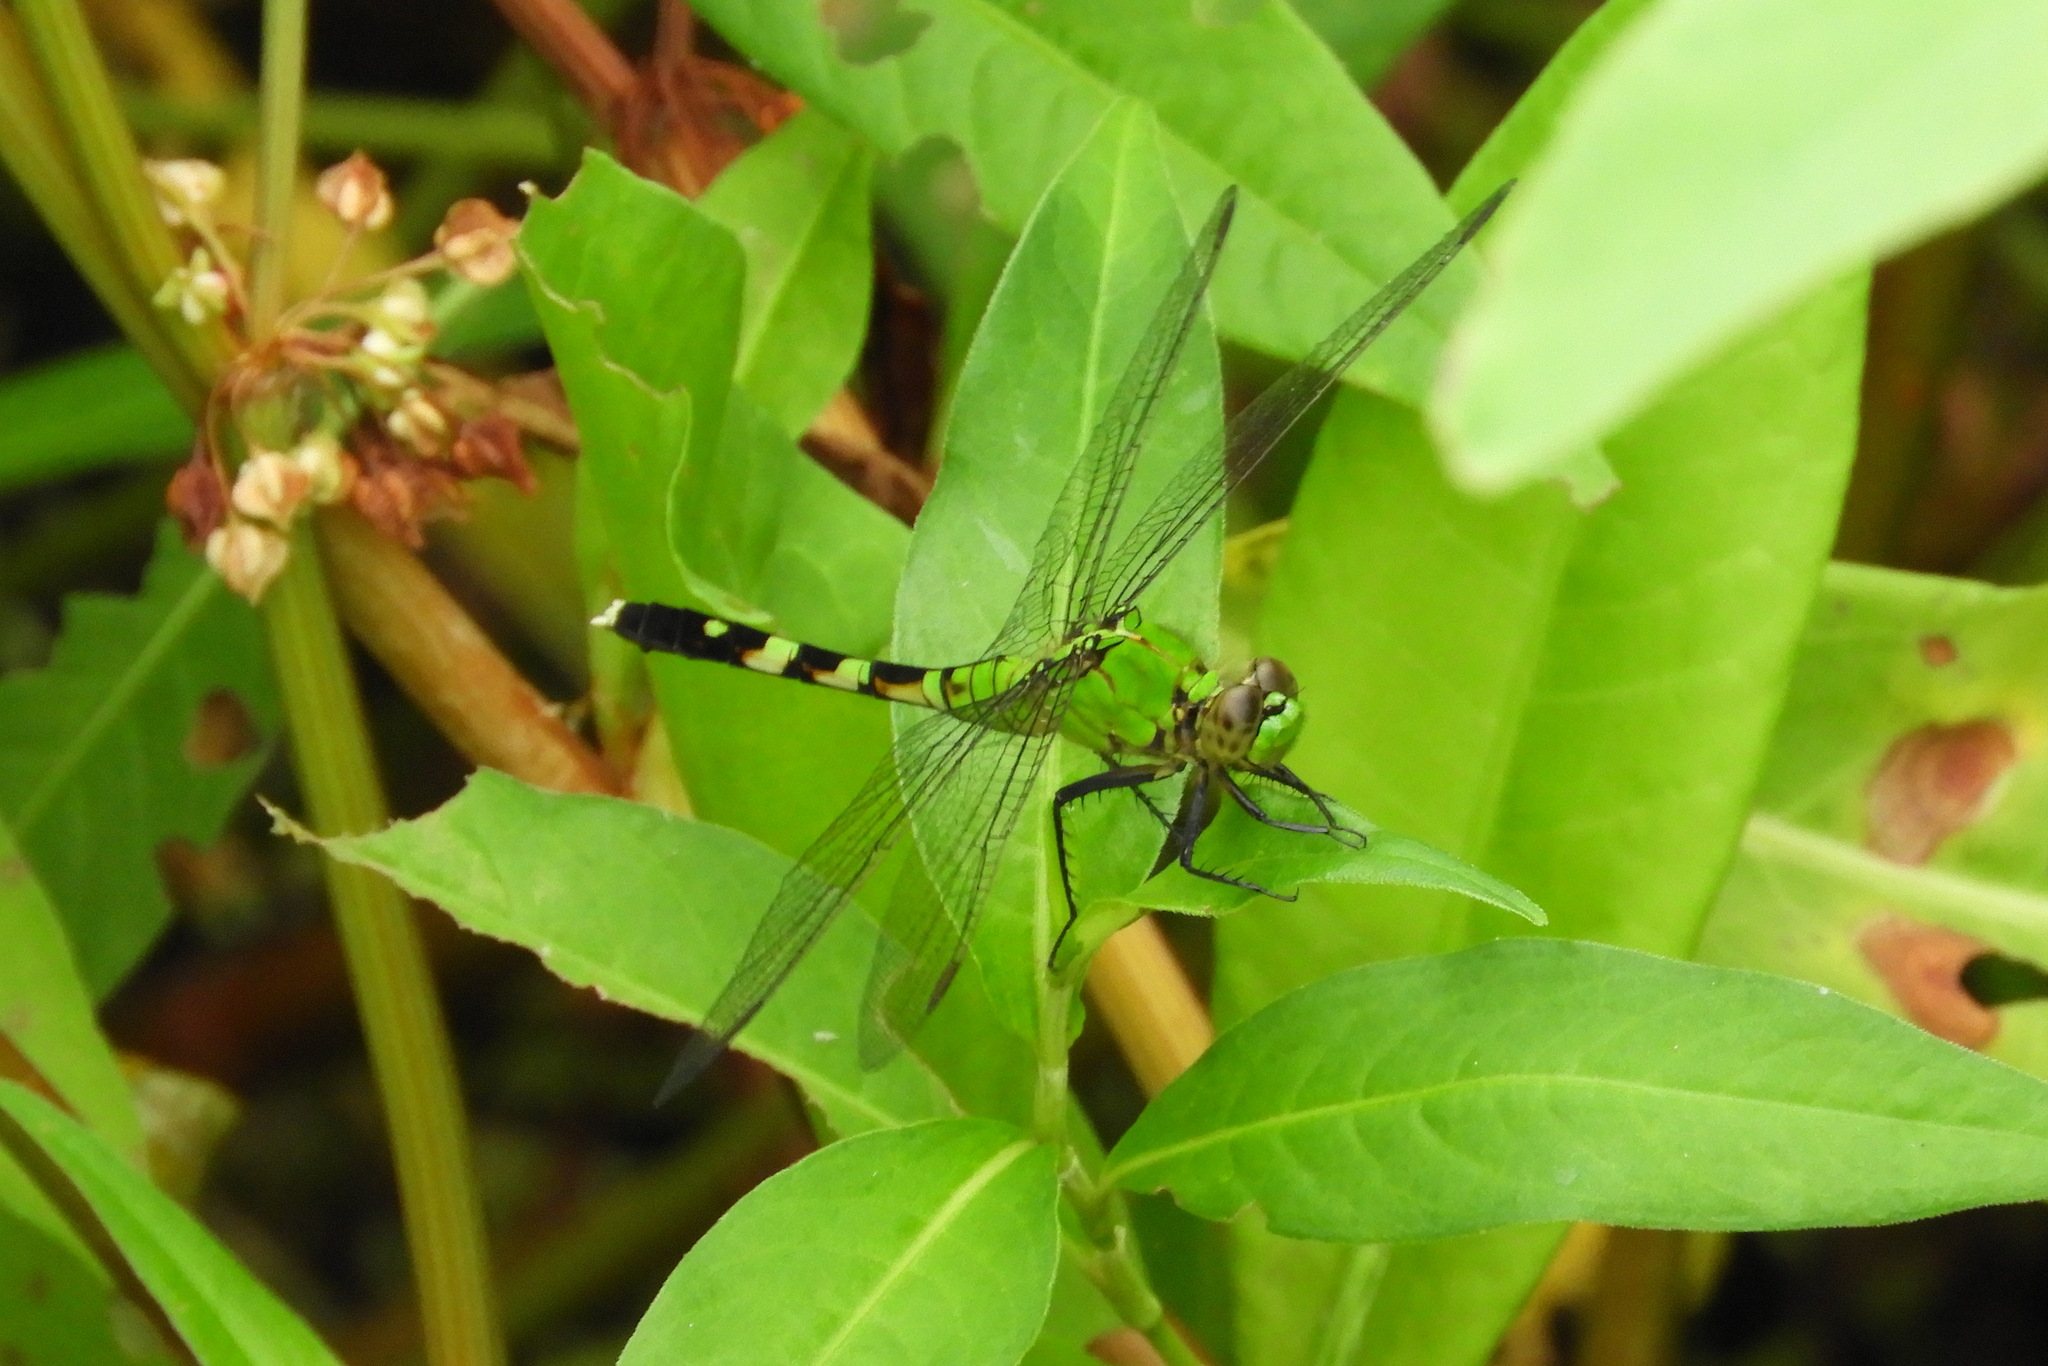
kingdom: Animalia
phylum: Arthropoda
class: Insecta
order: Odonata
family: Libellulidae
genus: Erythemis
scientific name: Erythemis simplicicollis
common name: Eastern pondhawk
